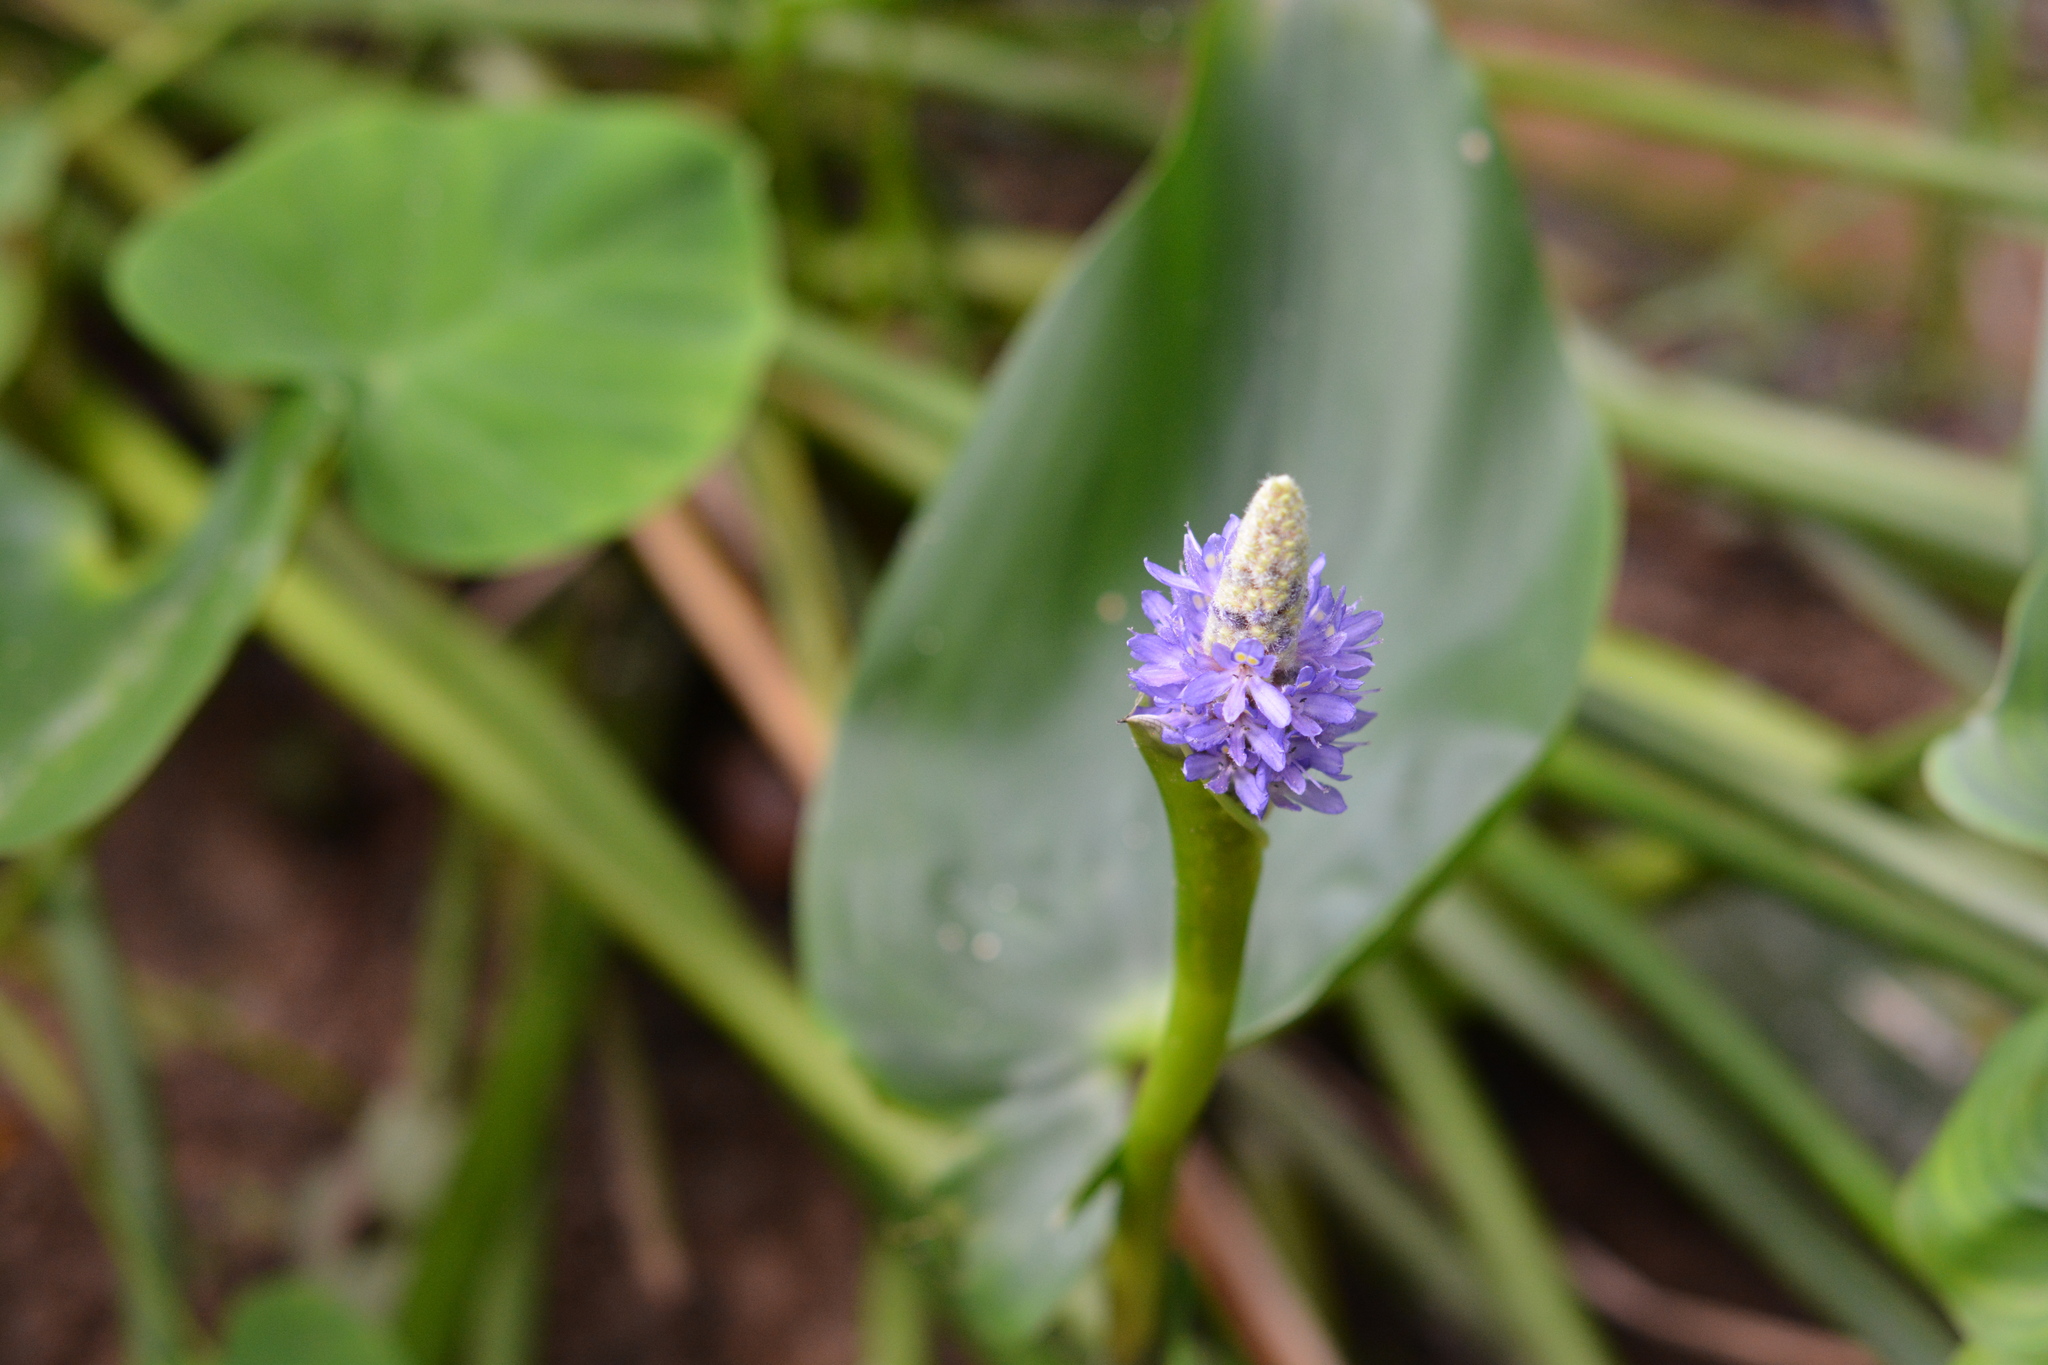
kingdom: Plantae
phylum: Tracheophyta
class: Liliopsida
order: Commelinales
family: Pontederiaceae
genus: Pontederia
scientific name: Pontederia cordata
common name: Pickerelweed
